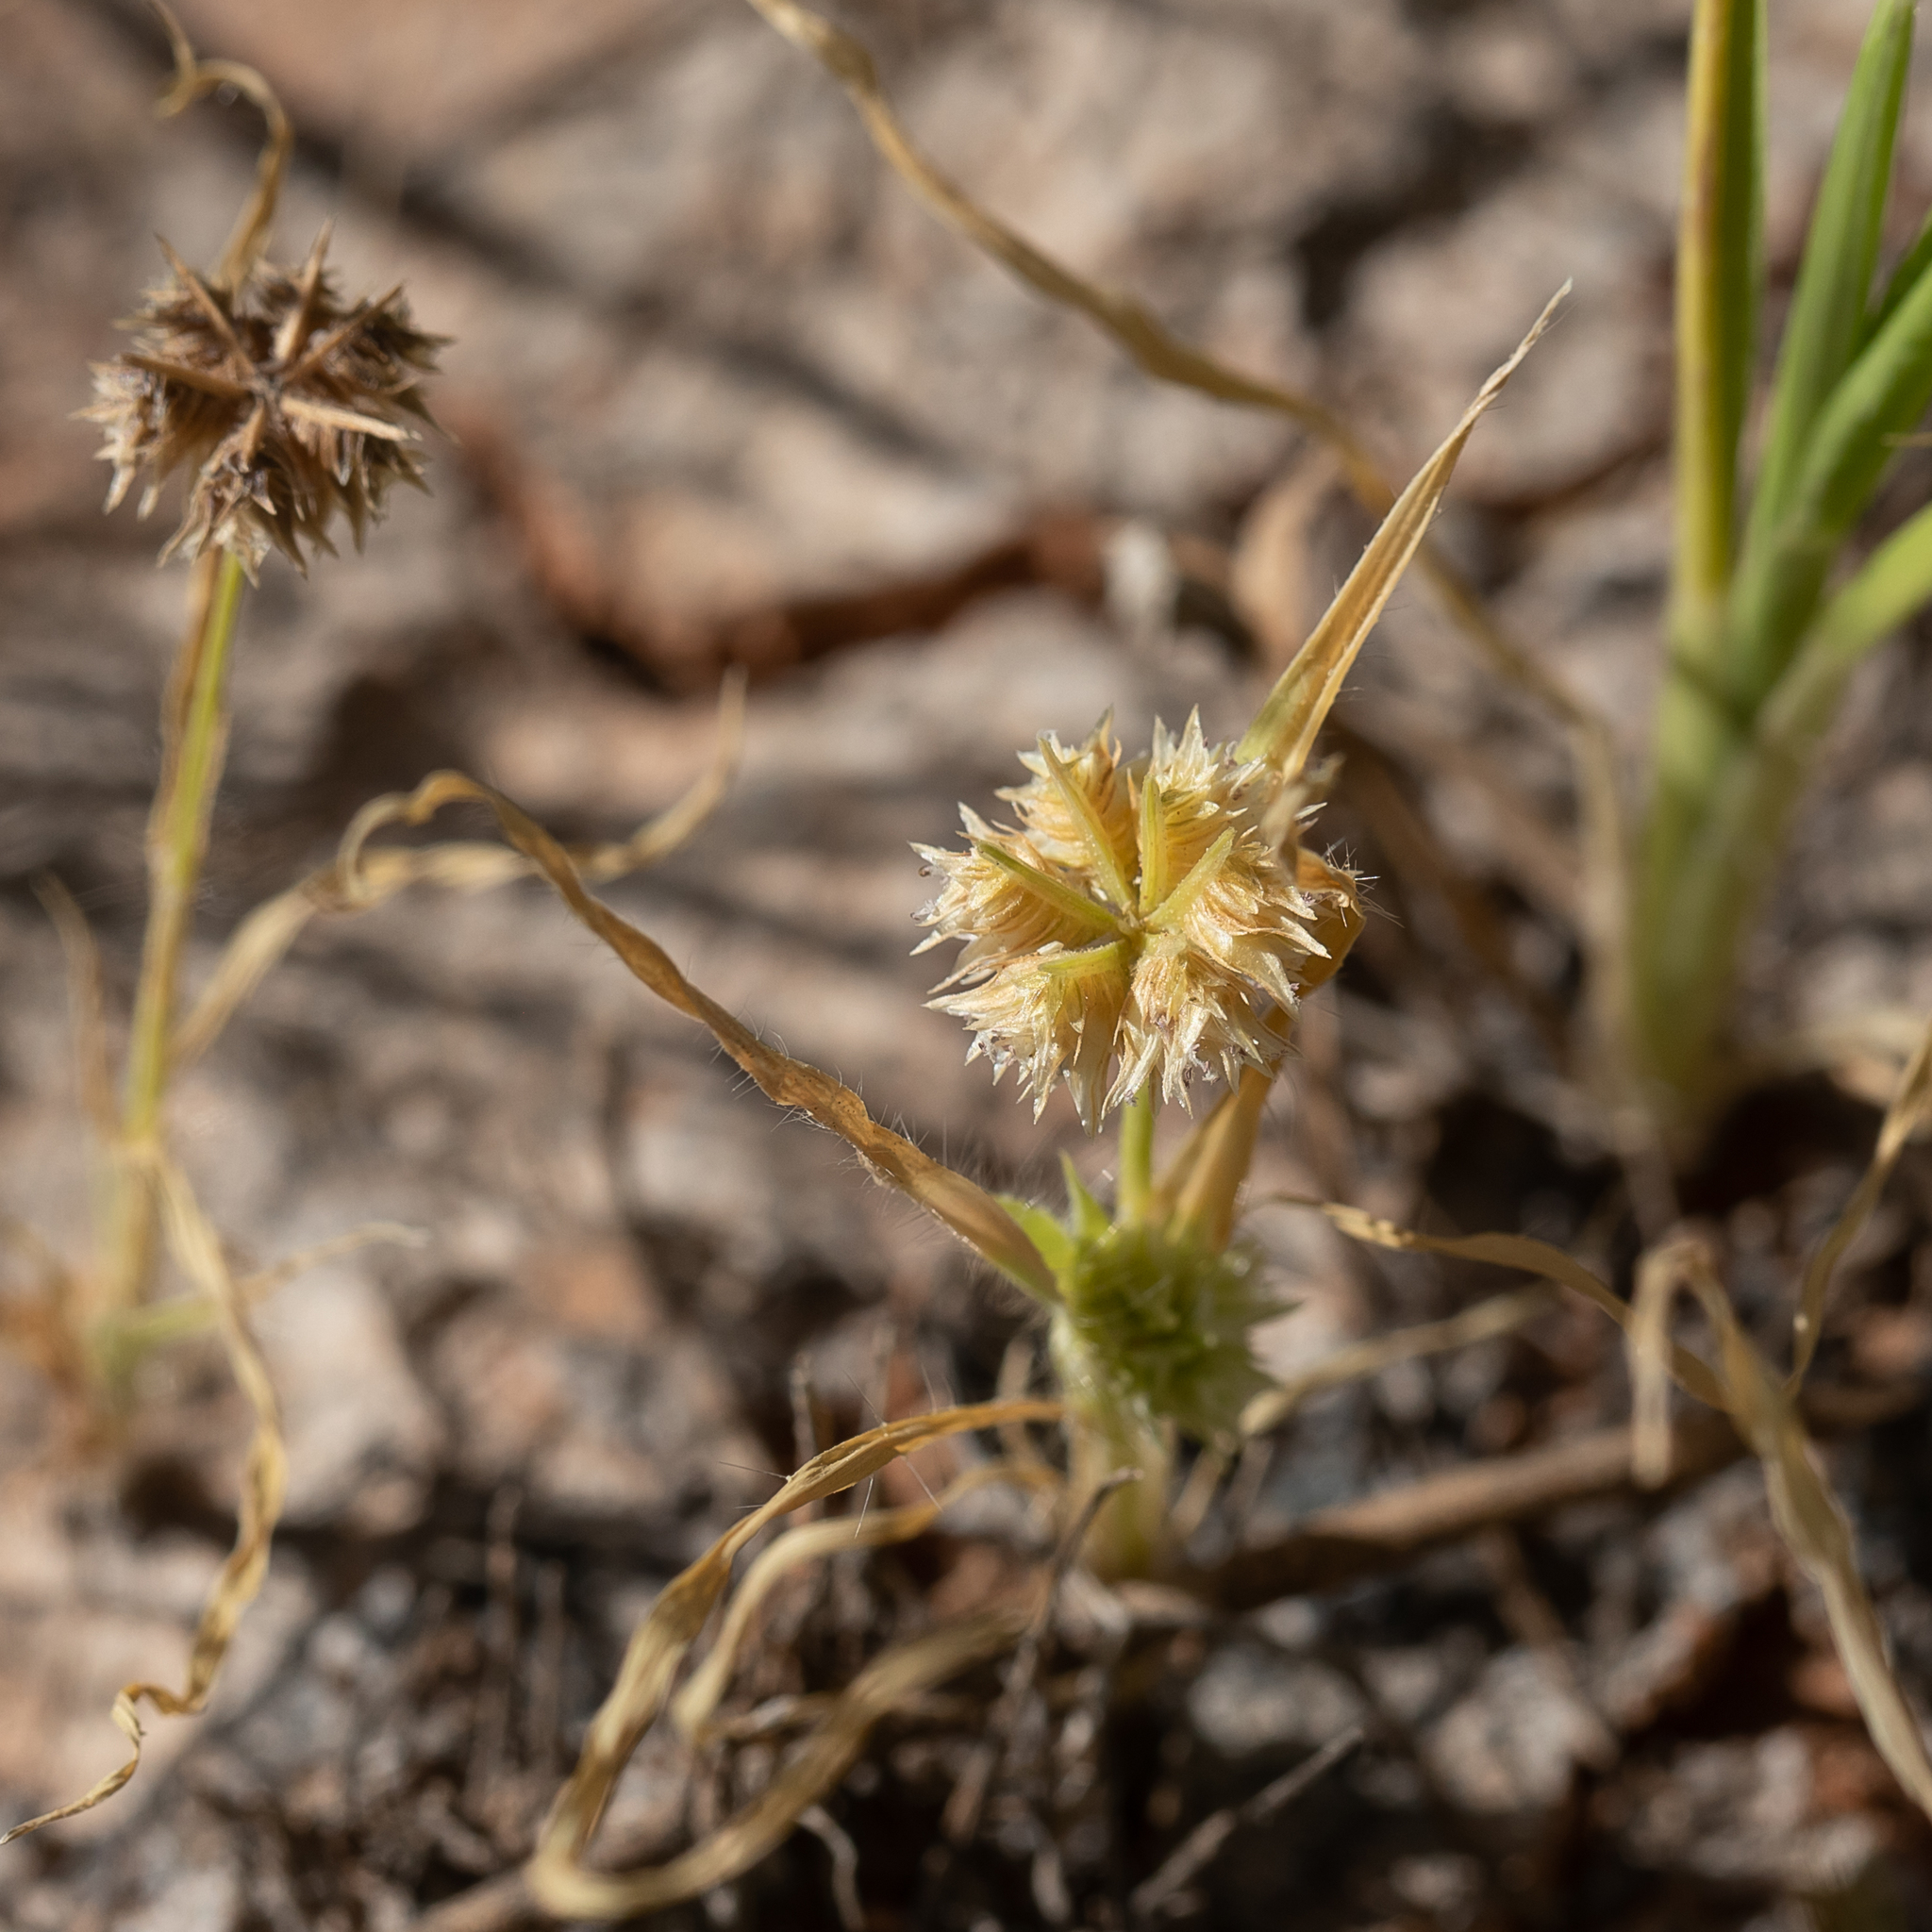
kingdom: Plantae
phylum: Tracheophyta
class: Liliopsida
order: Poales
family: Poaceae
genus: Dactyloctenium
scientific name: Dactyloctenium radulans
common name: Button-grass
